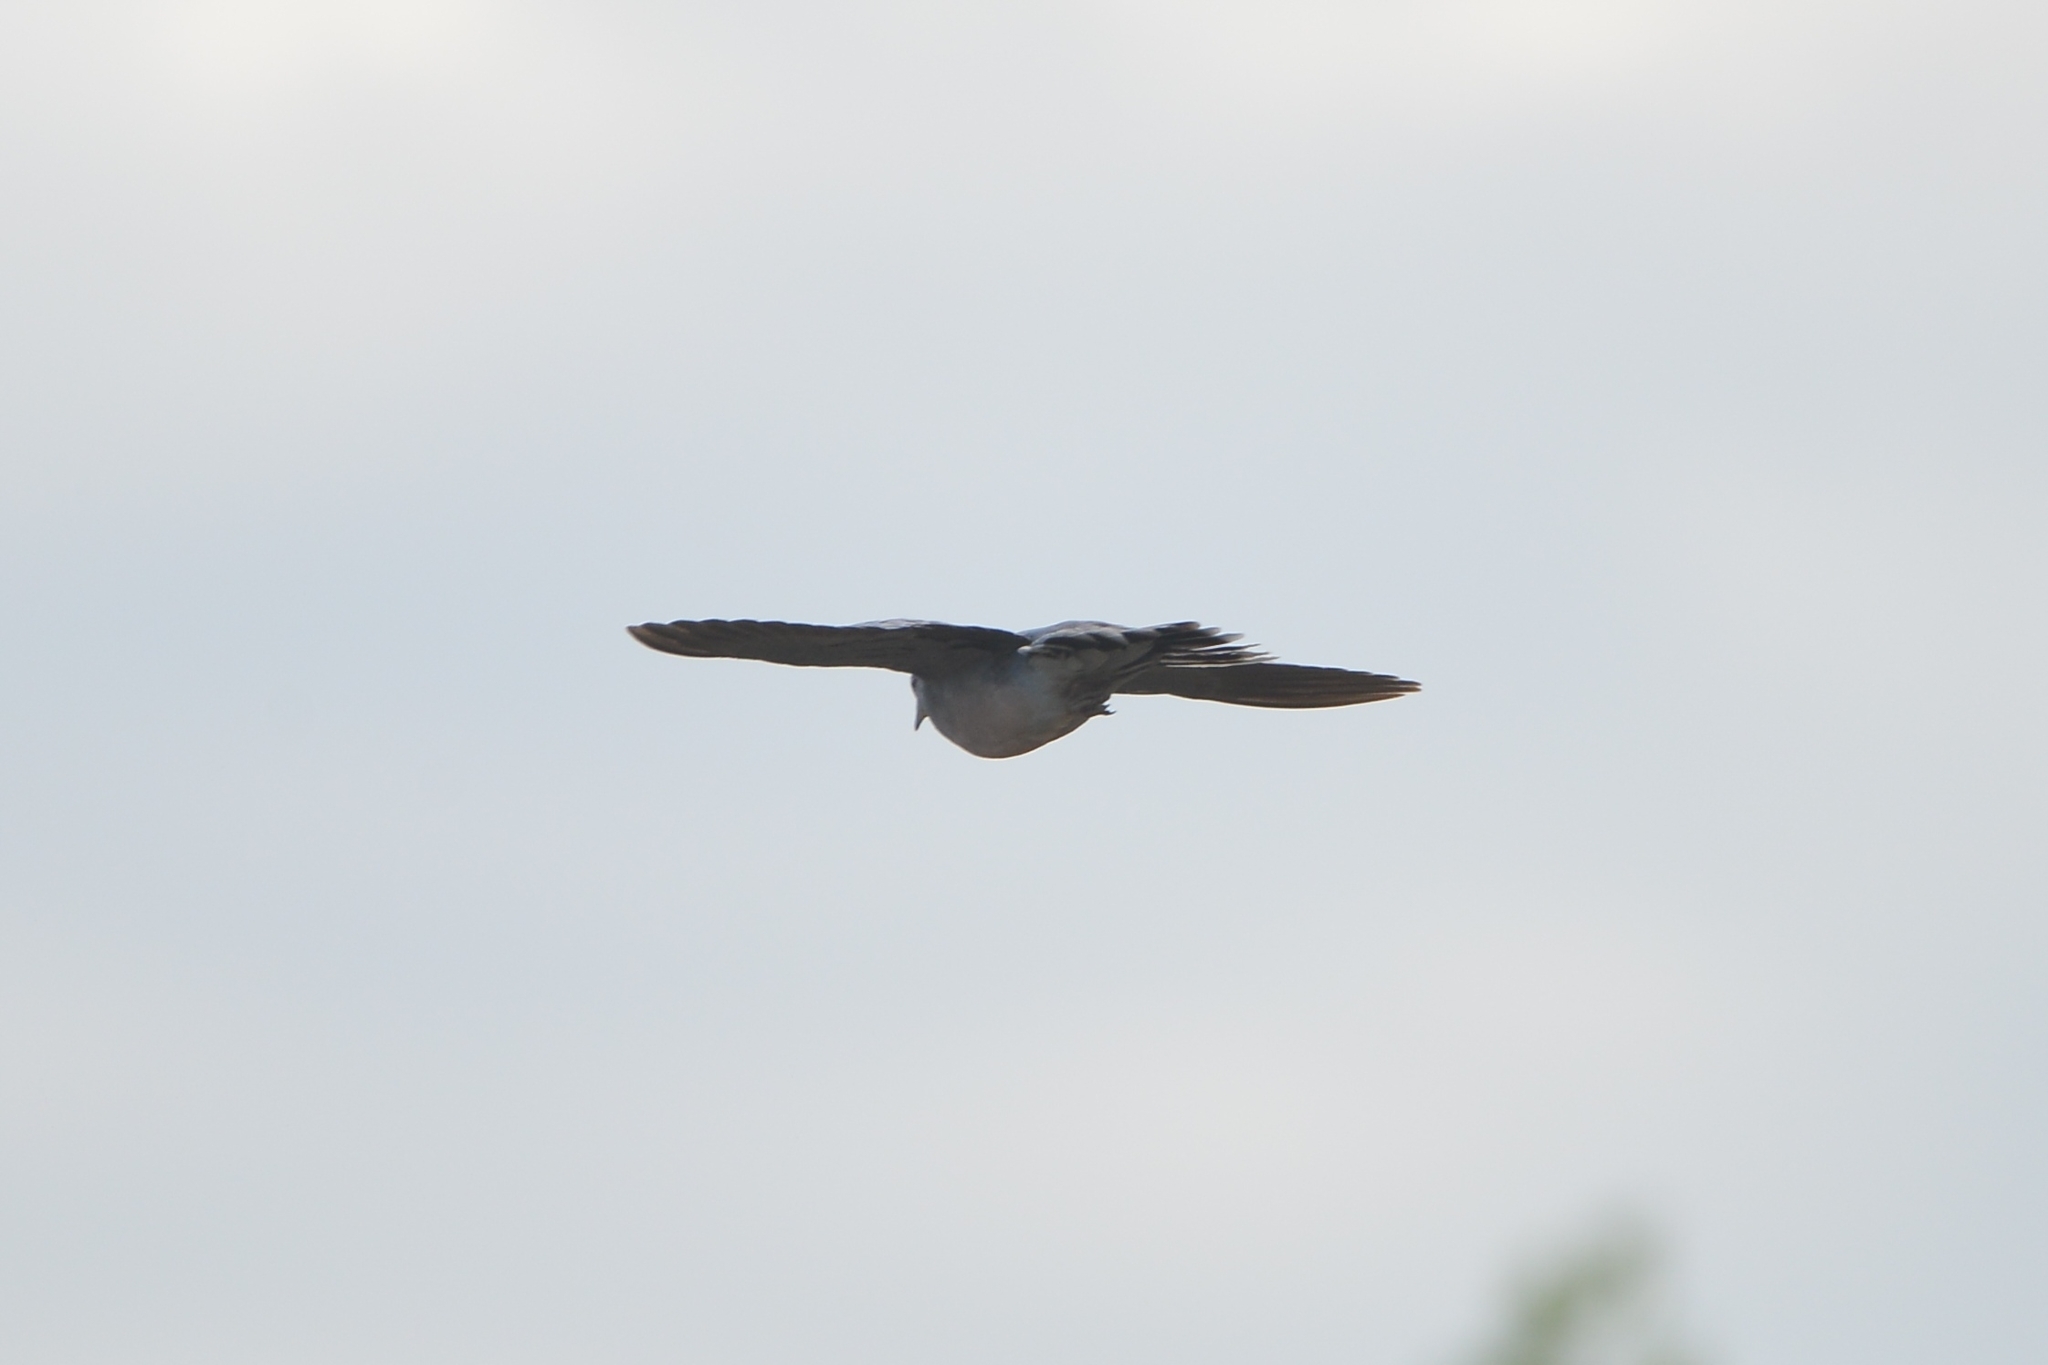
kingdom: Animalia
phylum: Chordata
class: Aves
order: Columbiformes
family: Columbidae
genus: Streptopelia
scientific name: Streptopelia orientalis
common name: Oriental turtle dove
